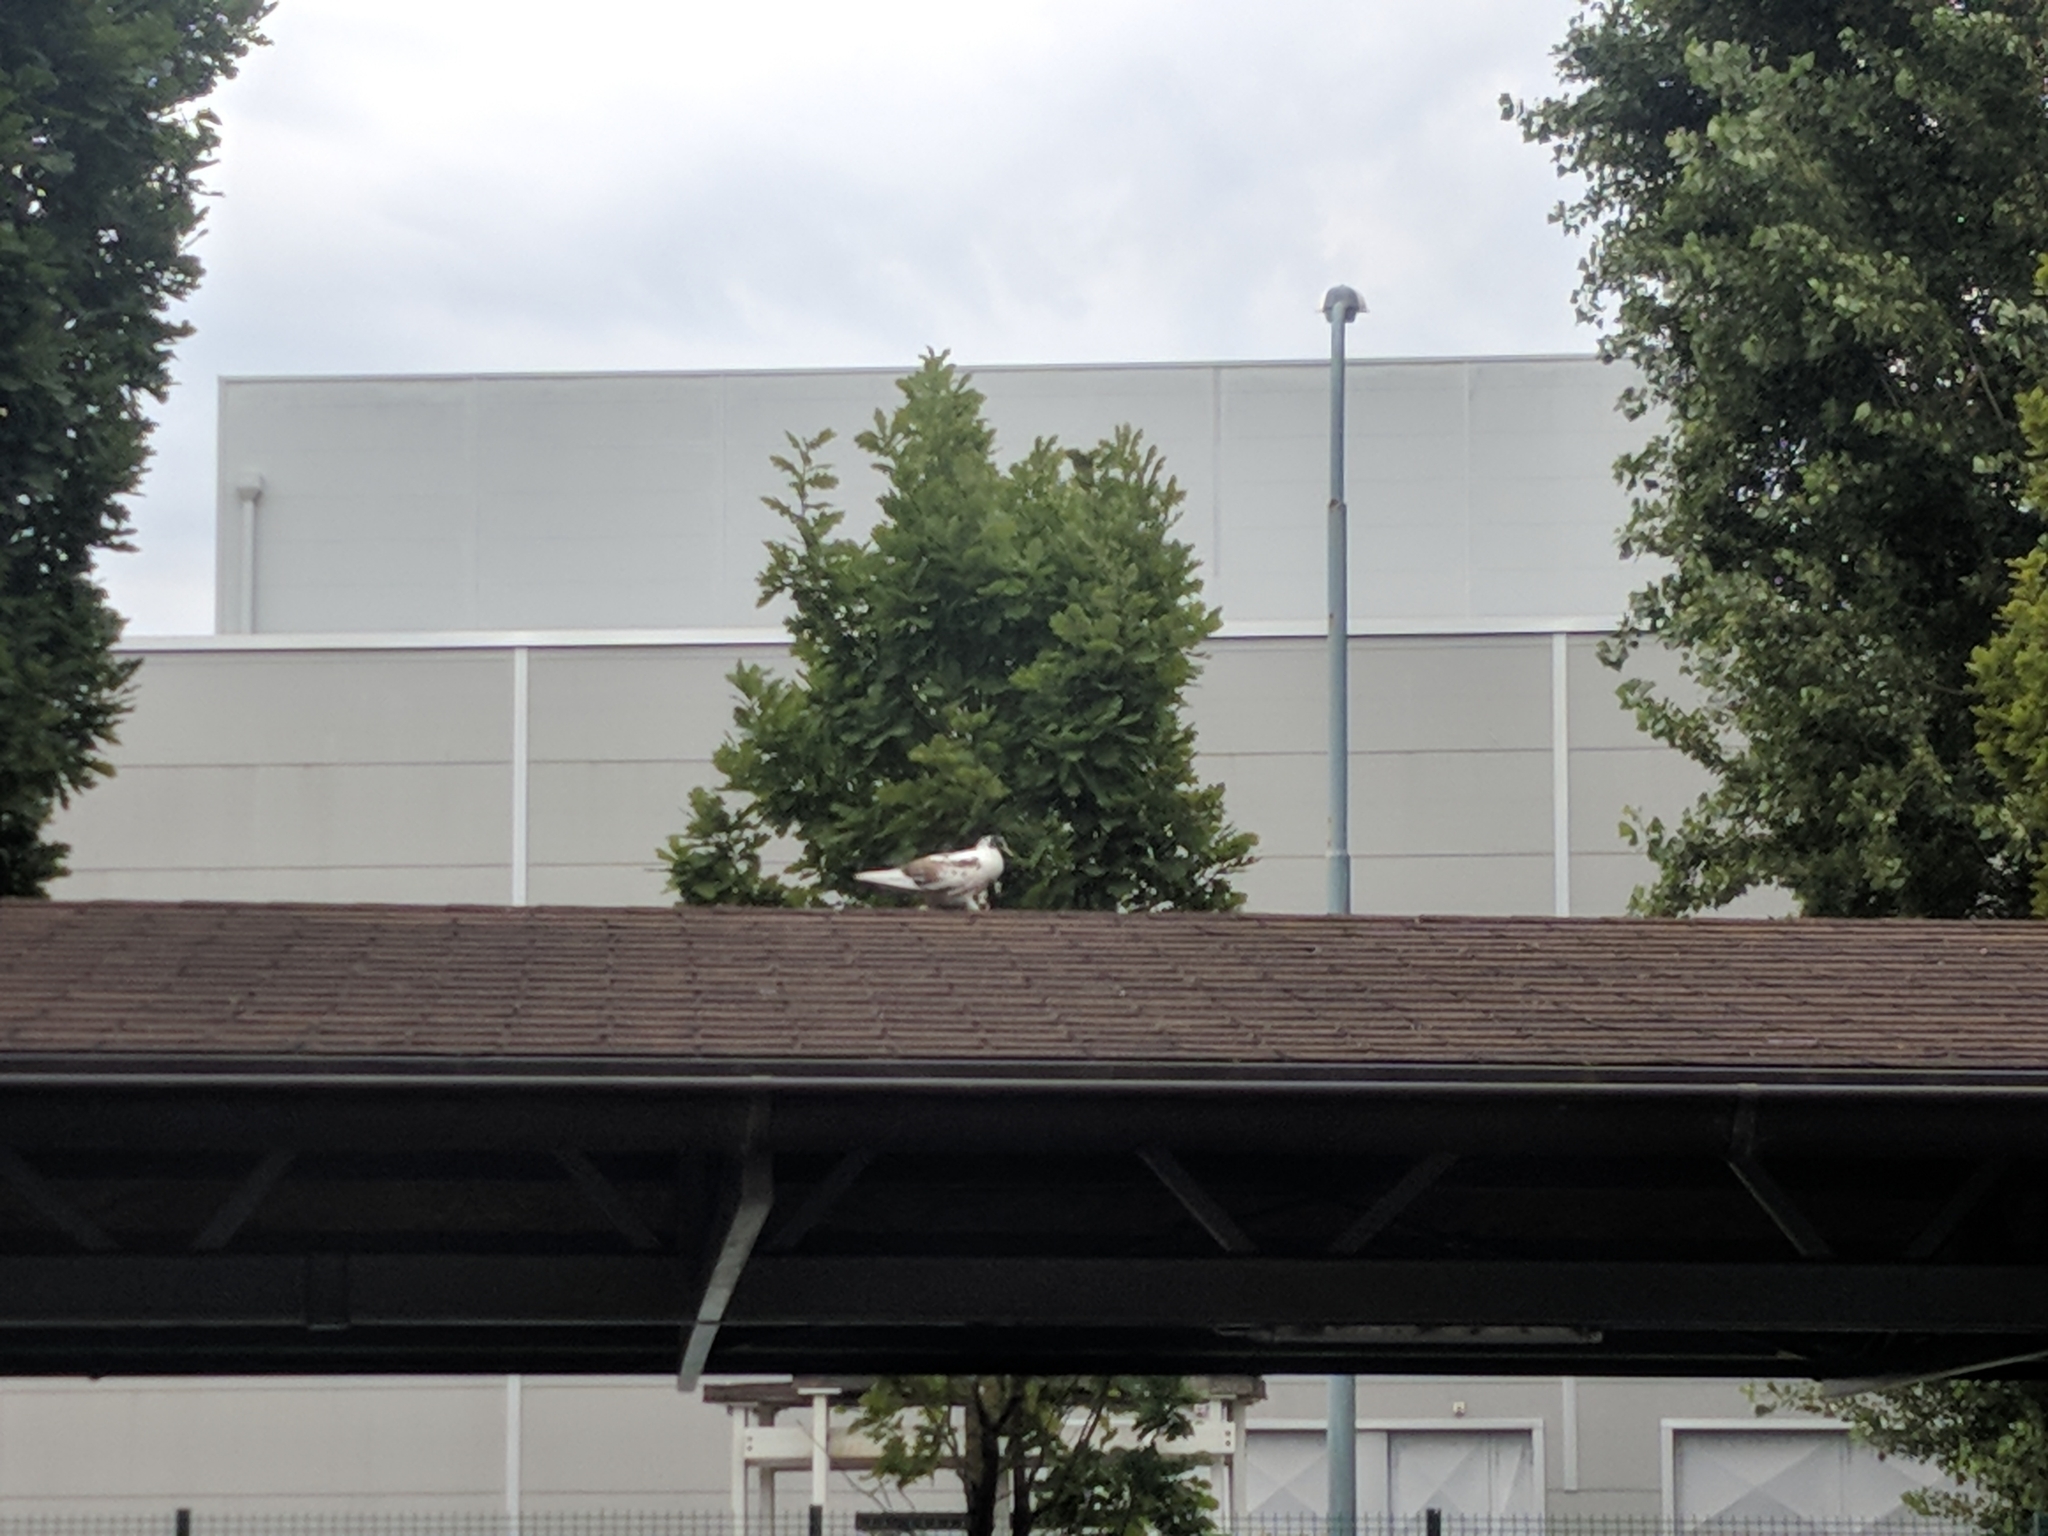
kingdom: Animalia
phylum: Chordata
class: Aves
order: Columbiformes
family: Columbidae
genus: Columba
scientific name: Columba livia
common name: Rock pigeon
